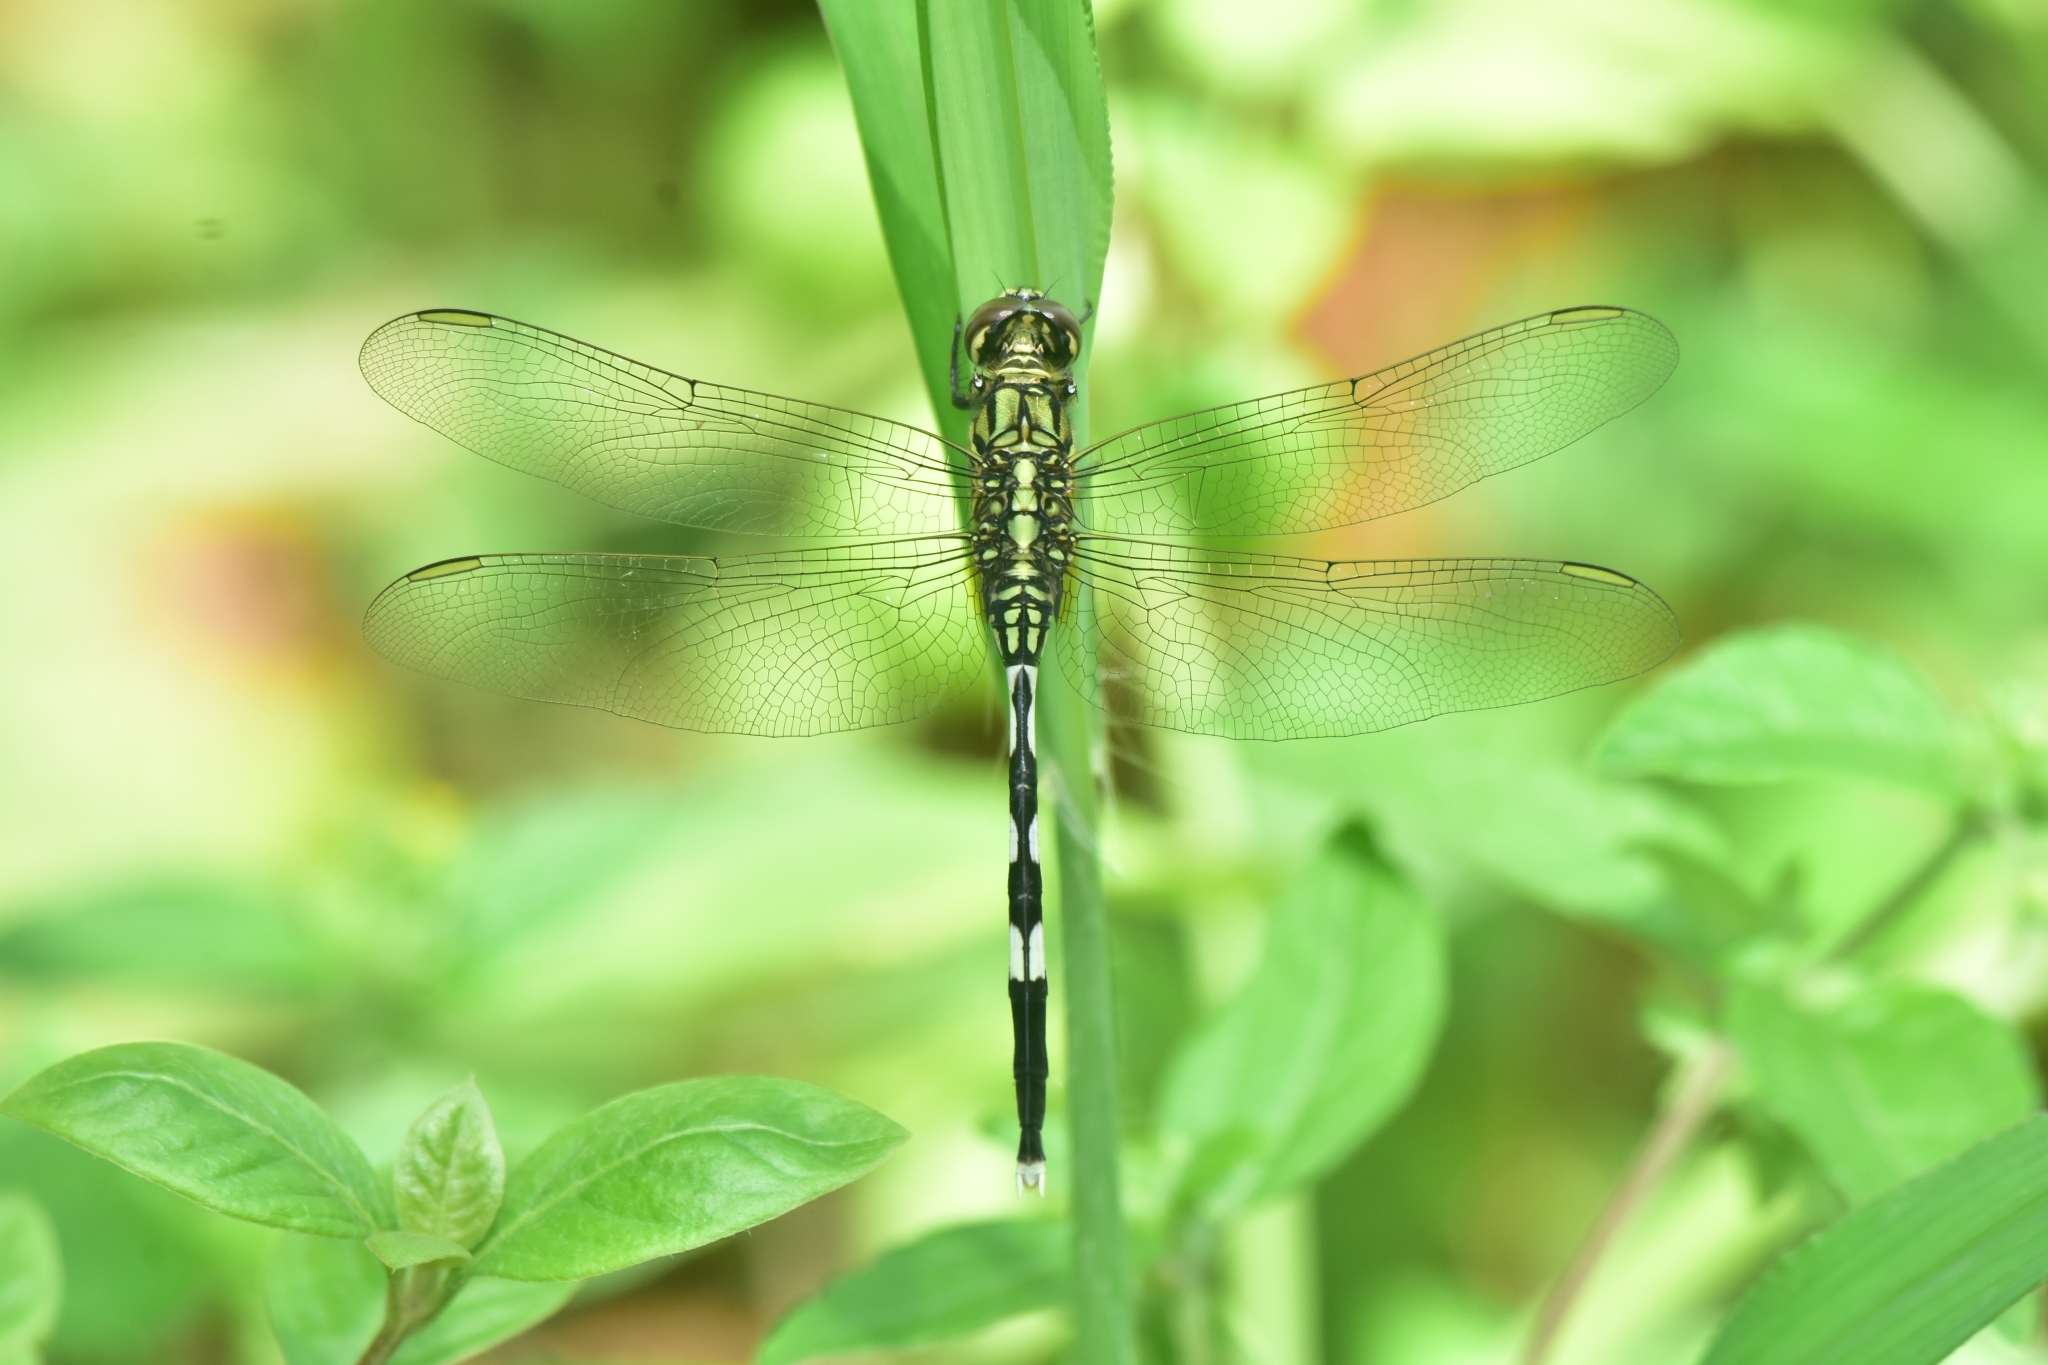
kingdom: Animalia
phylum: Arthropoda
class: Insecta
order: Odonata
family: Libellulidae
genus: Orthetrum
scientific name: Orthetrum sabina
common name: Slender skimmer
